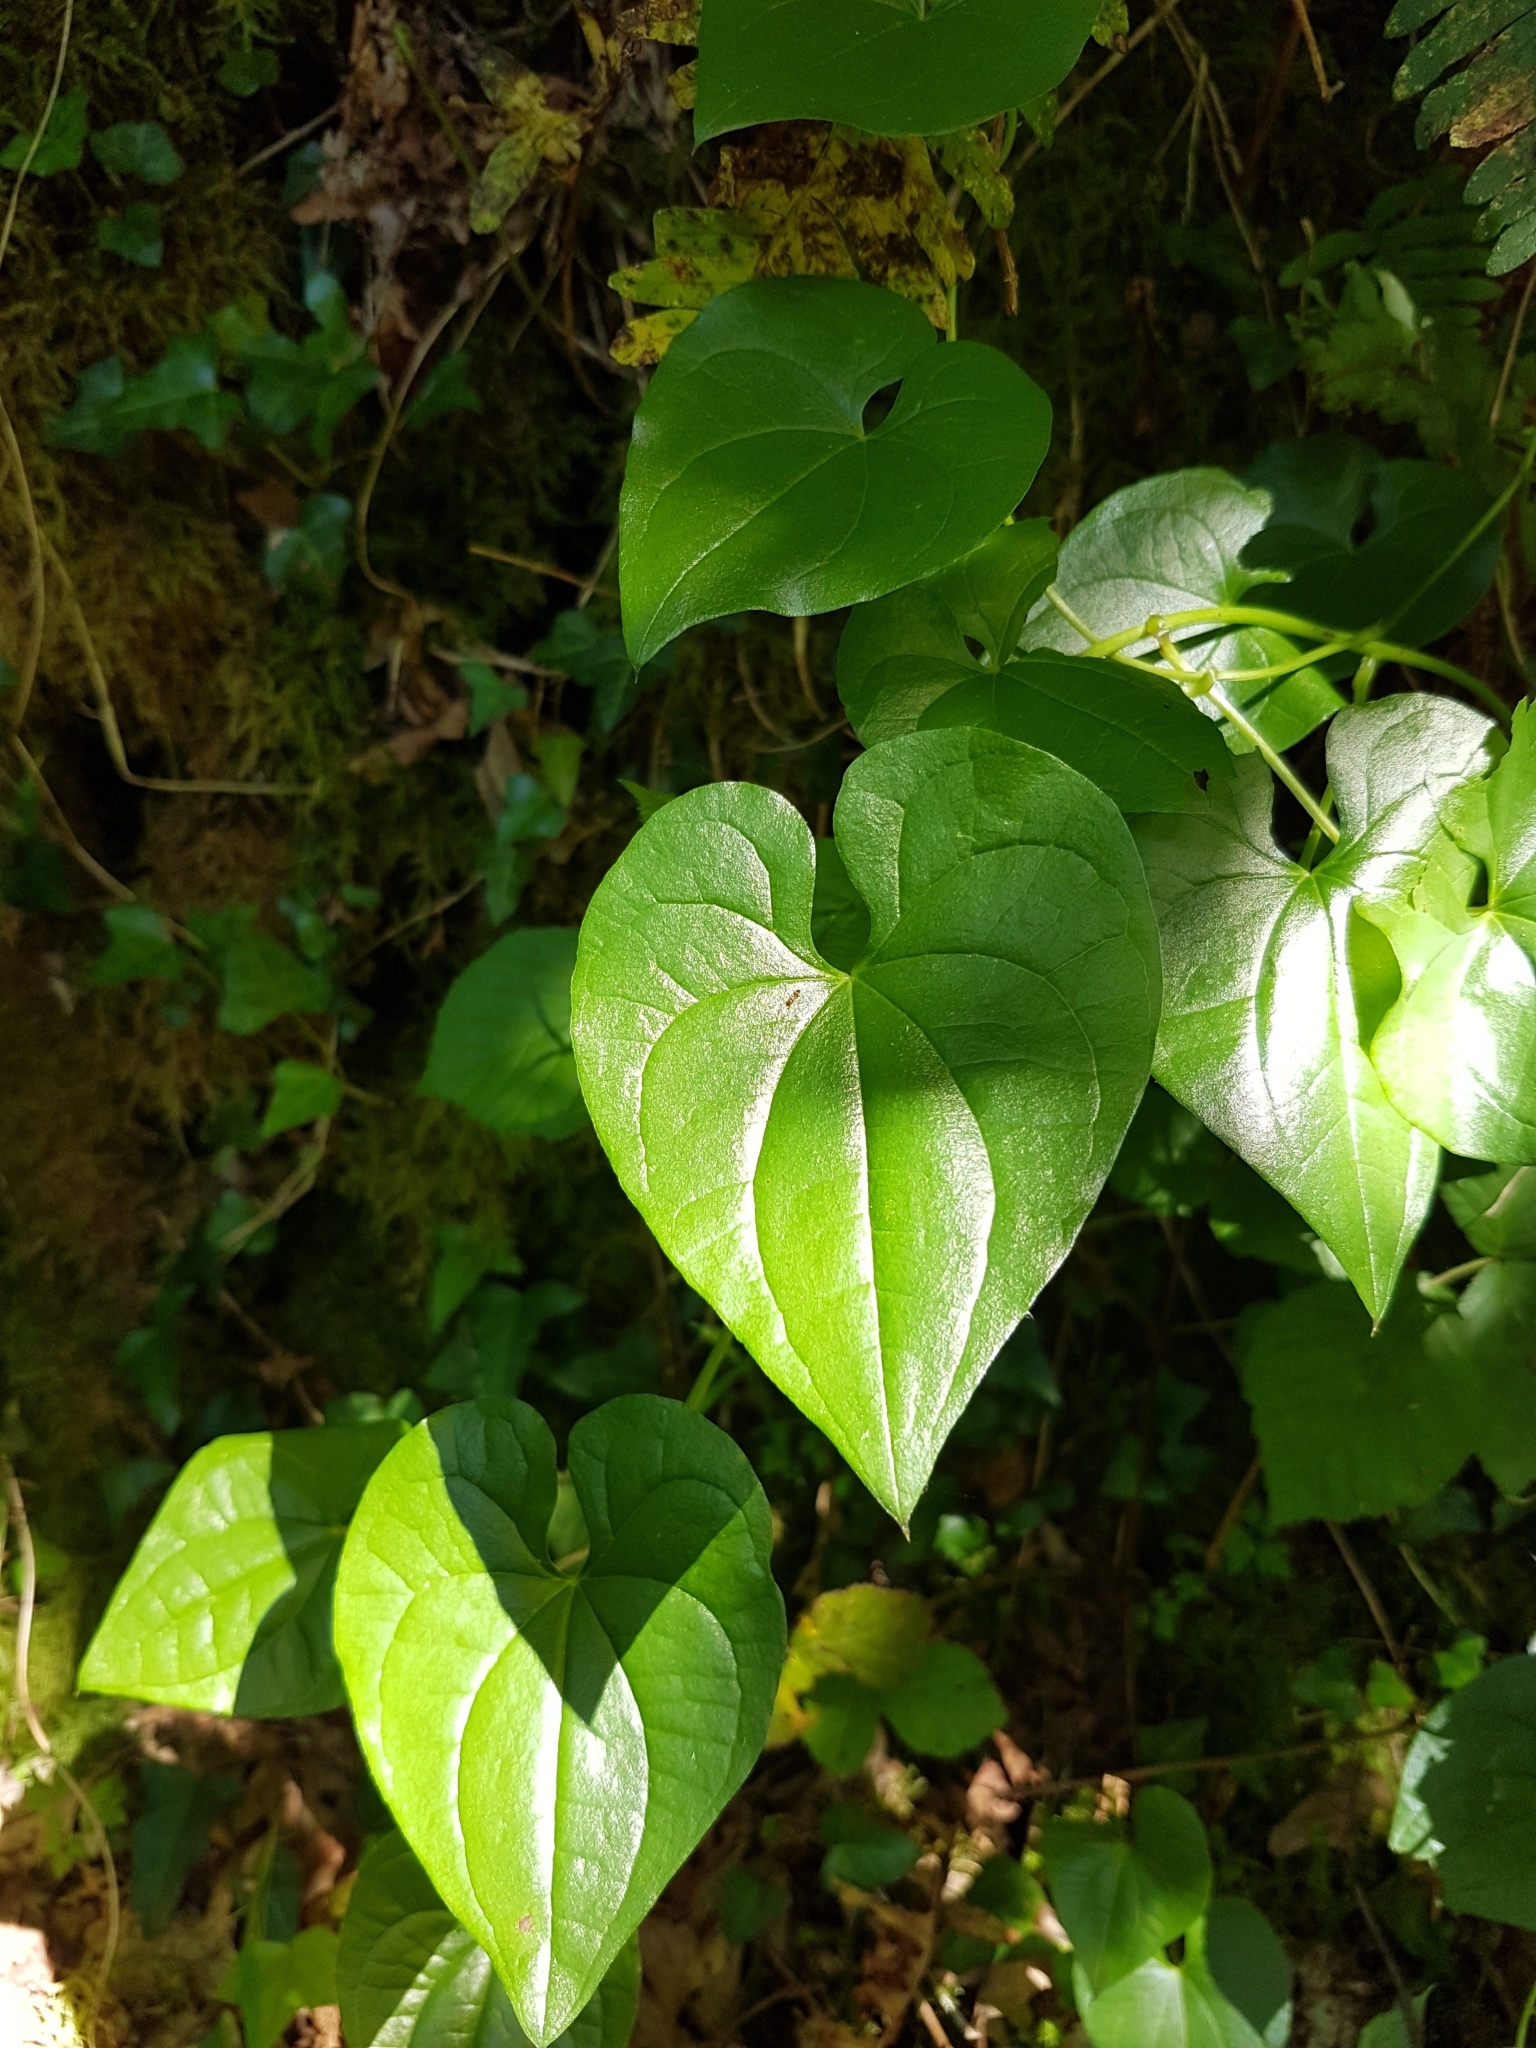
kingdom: Plantae
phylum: Tracheophyta
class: Liliopsida
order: Dioscoreales
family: Dioscoreaceae
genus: Dioscorea
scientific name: Dioscorea communis
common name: Black-bindweed
